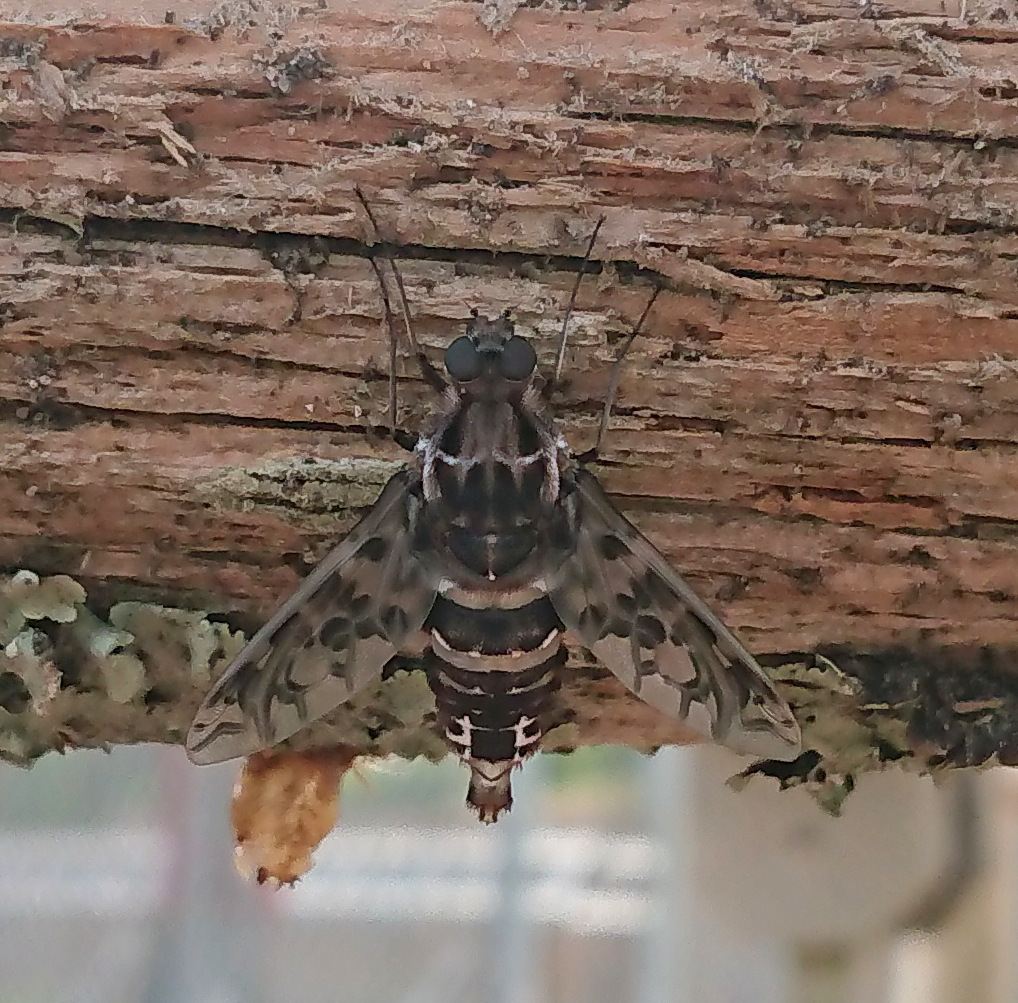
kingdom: Animalia
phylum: Arthropoda
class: Insecta
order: Diptera
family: Bombyliidae
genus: Xenox
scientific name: Xenox tigrinus
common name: Tiger bee fly
